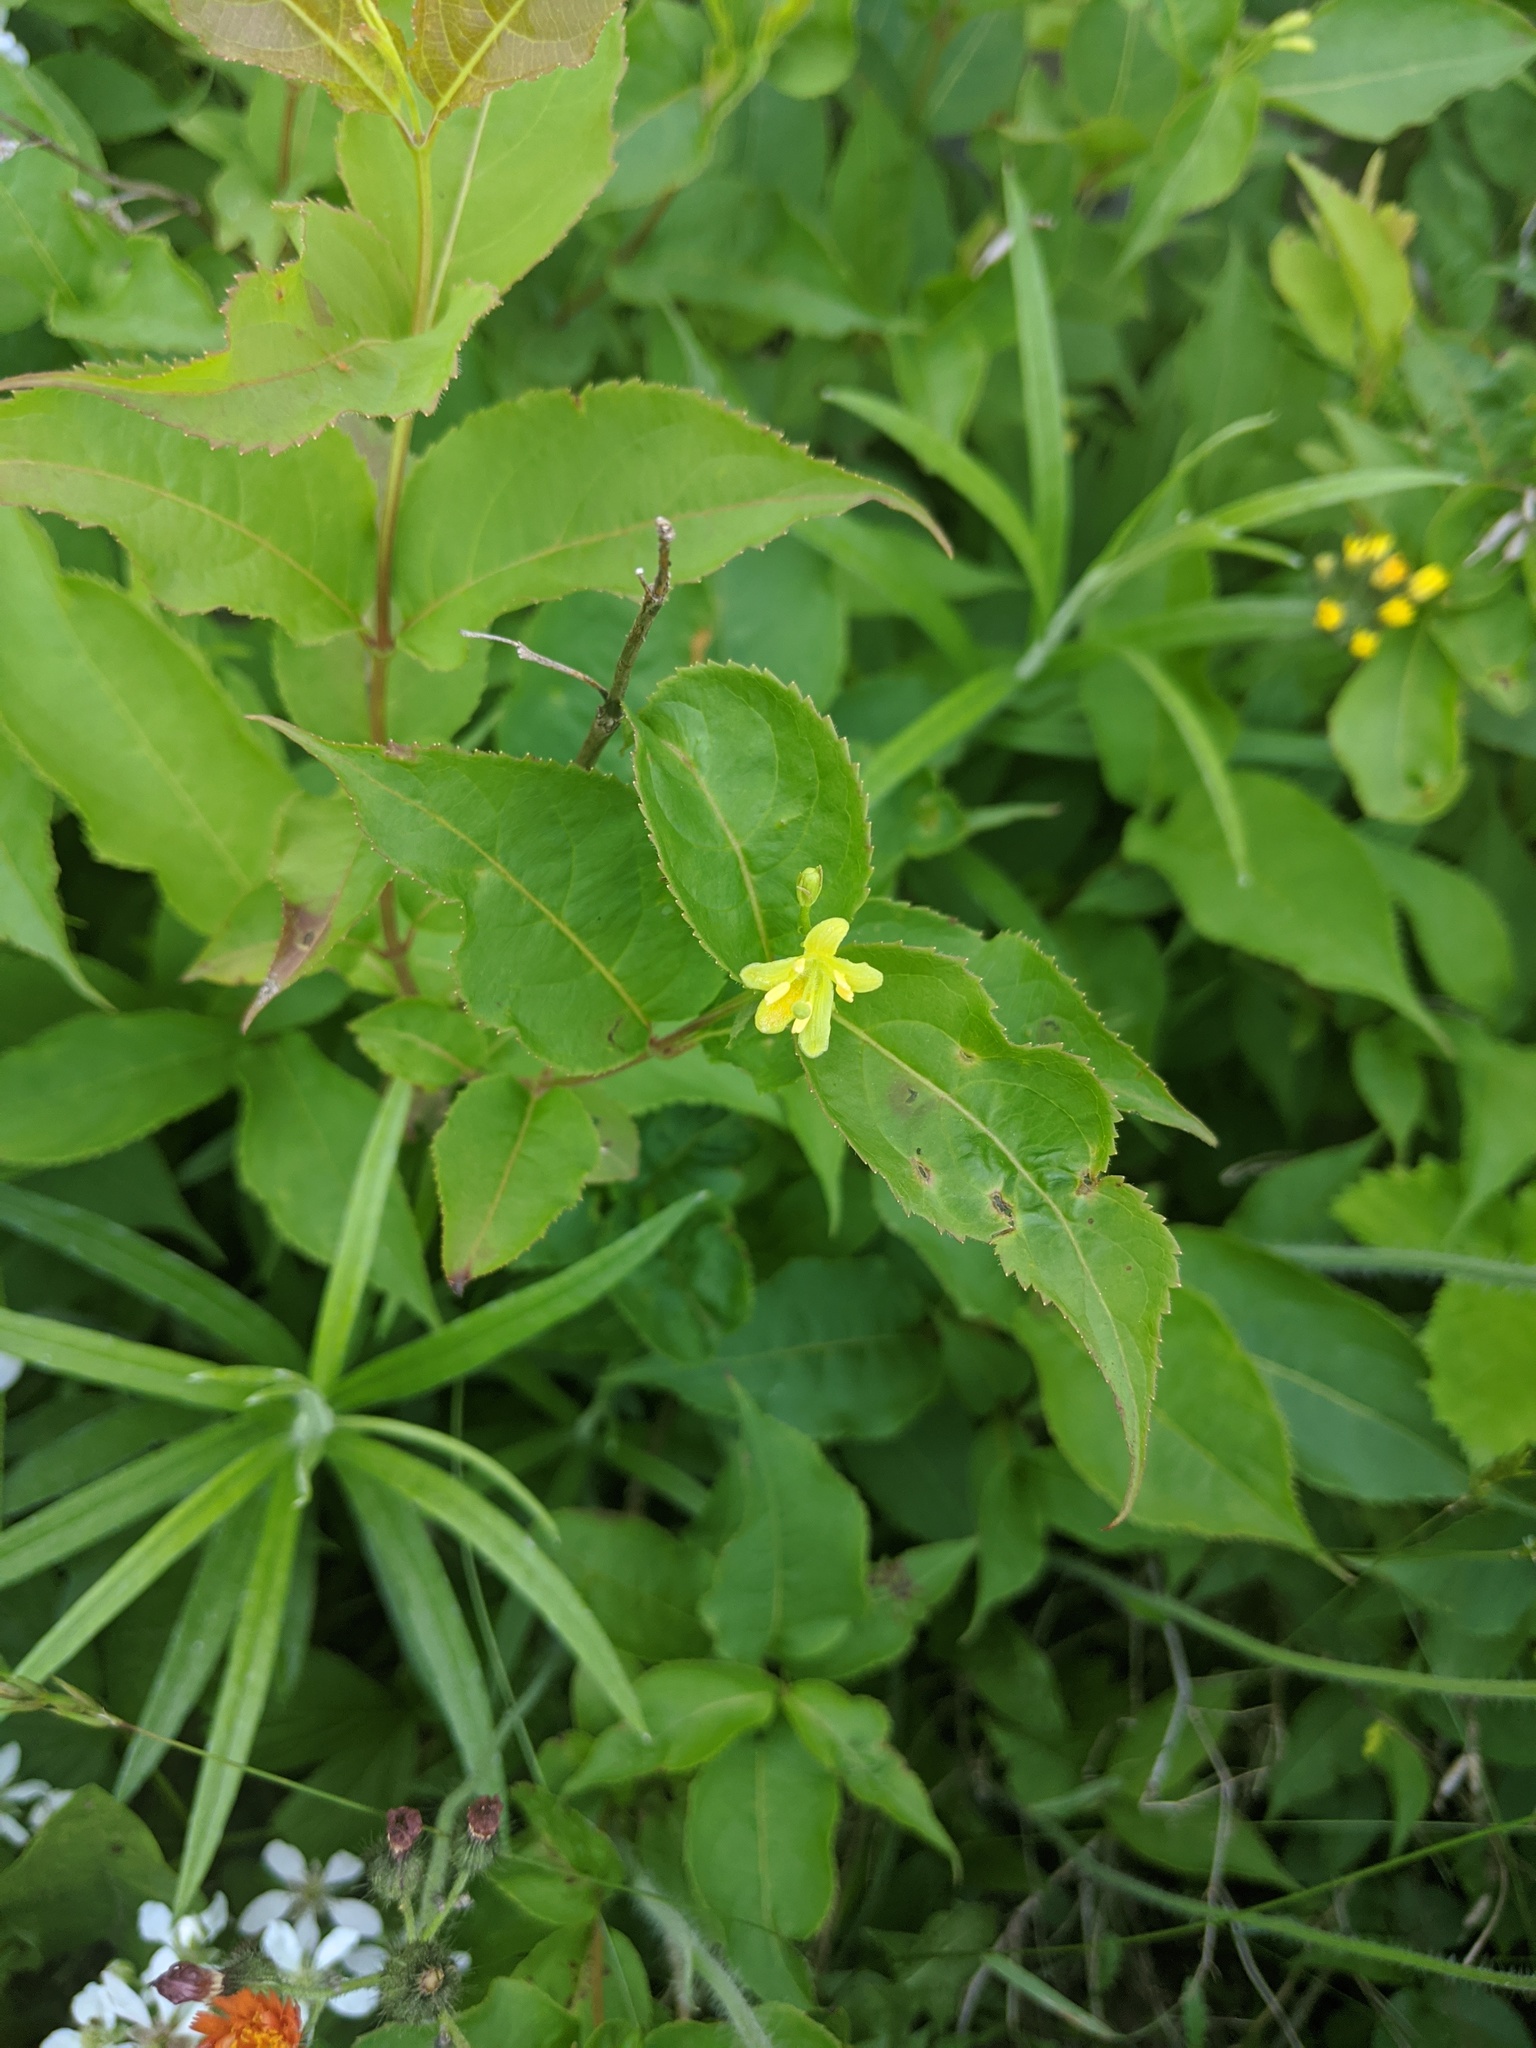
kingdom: Plantae
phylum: Tracheophyta
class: Magnoliopsida
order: Dipsacales
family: Caprifoliaceae
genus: Diervilla
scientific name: Diervilla lonicera
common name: Bush-honeysuckle
